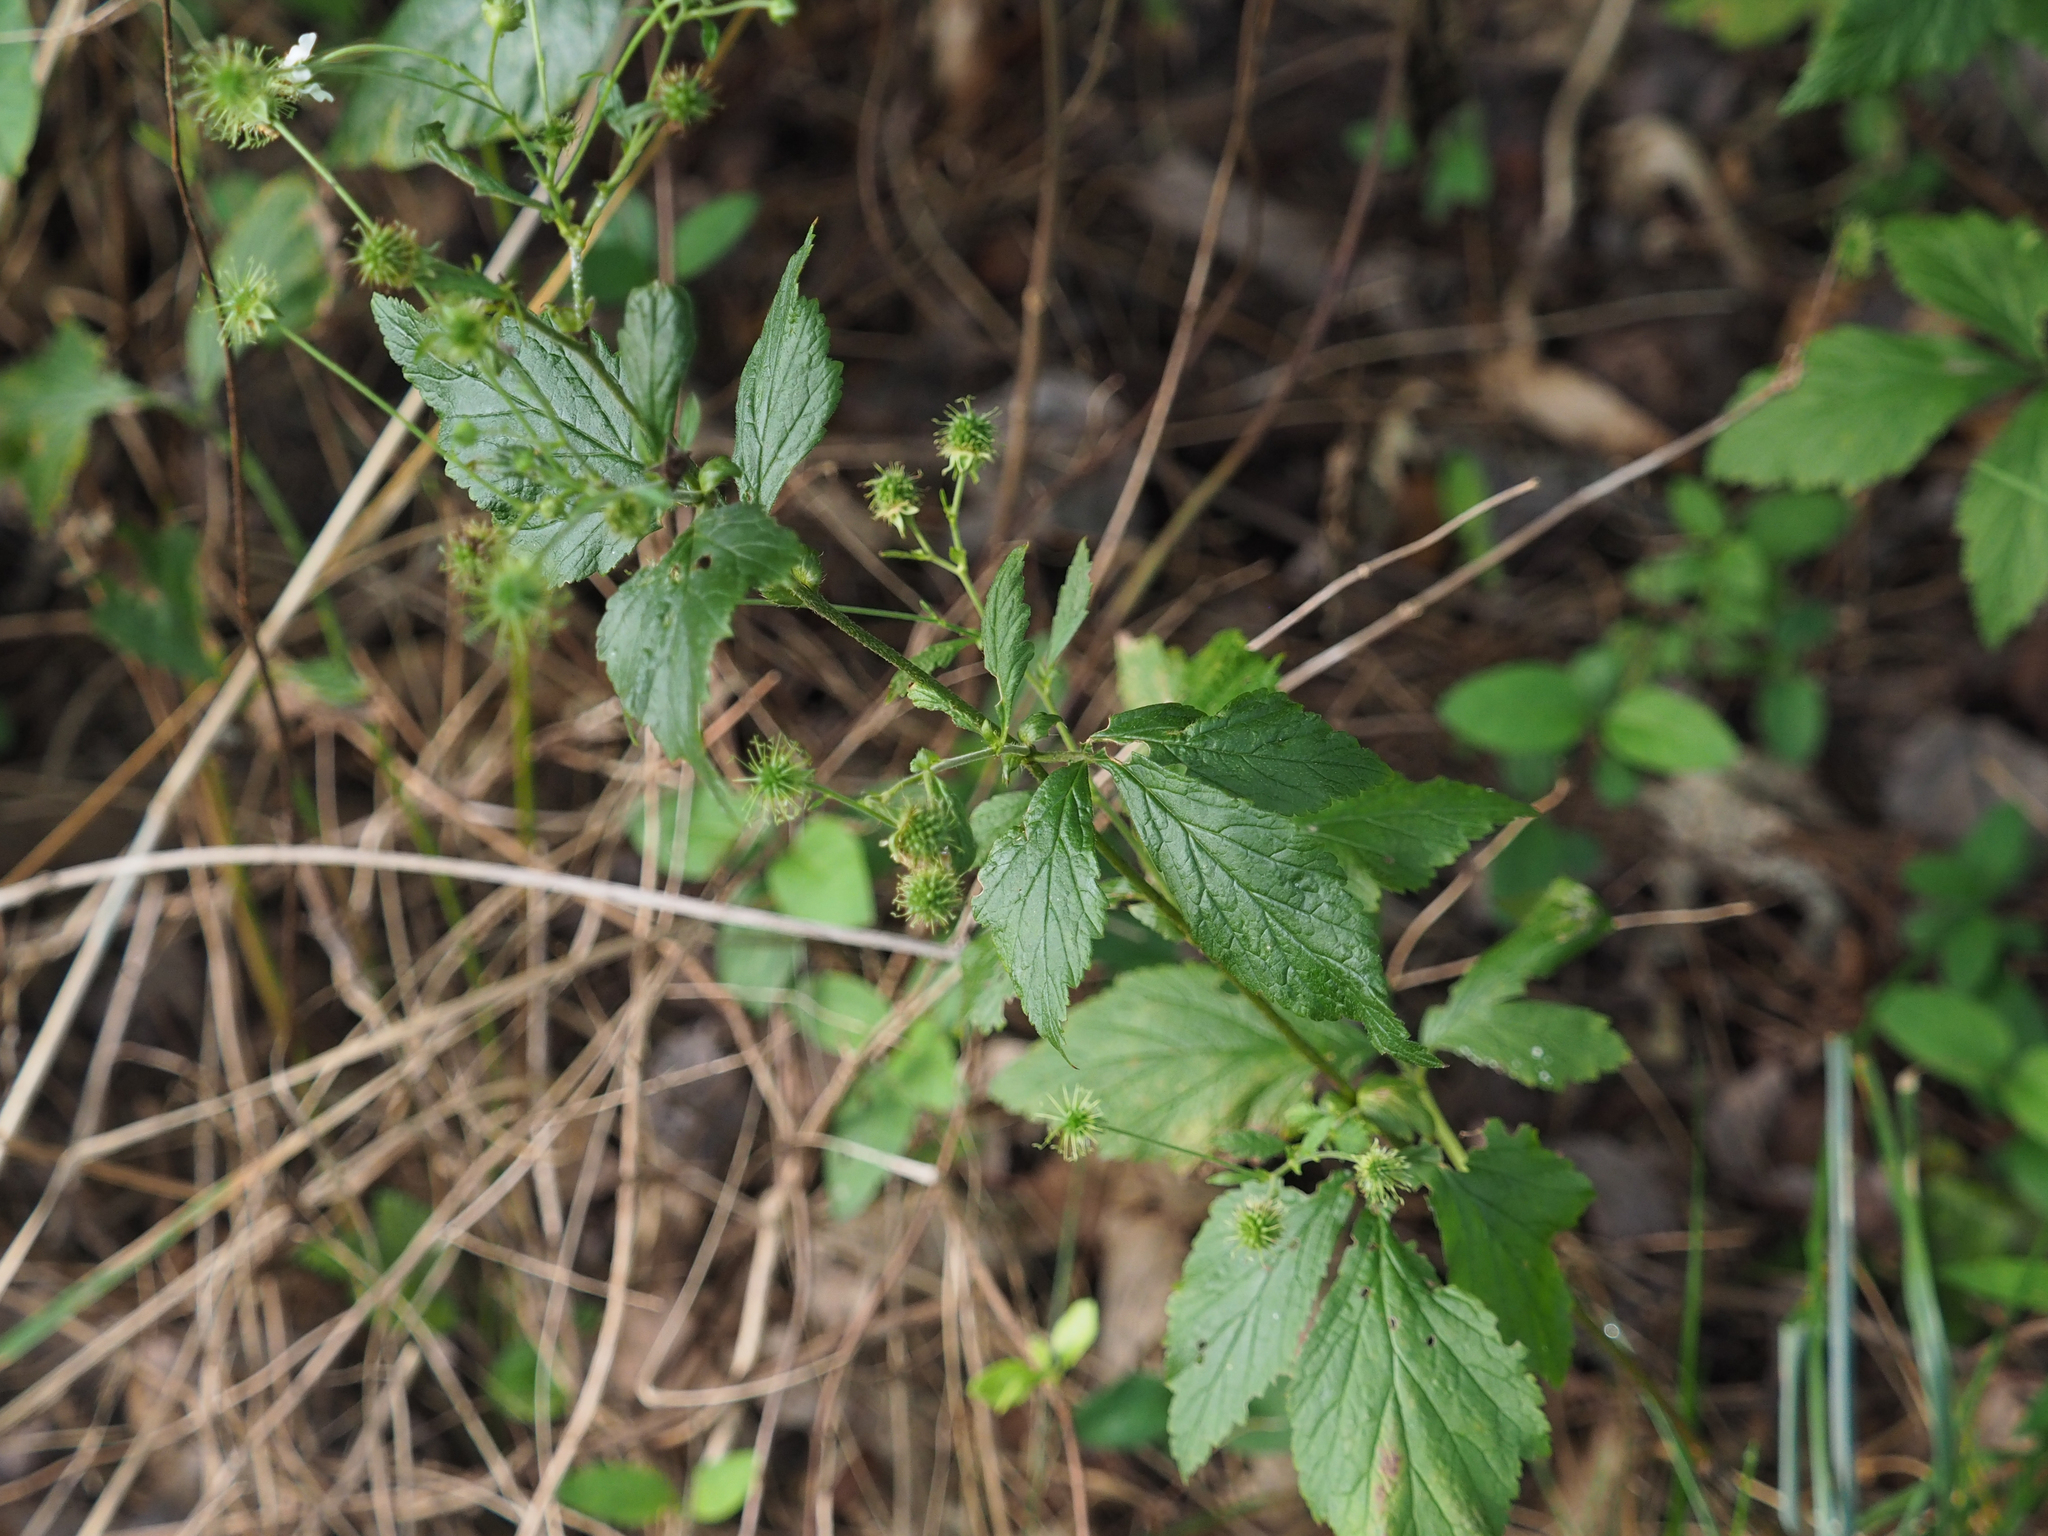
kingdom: Plantae
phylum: Tracheophyta
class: Magnoliopsida
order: Rosales
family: Rosaceae
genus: Geum
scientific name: Geum canadense
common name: White avens
